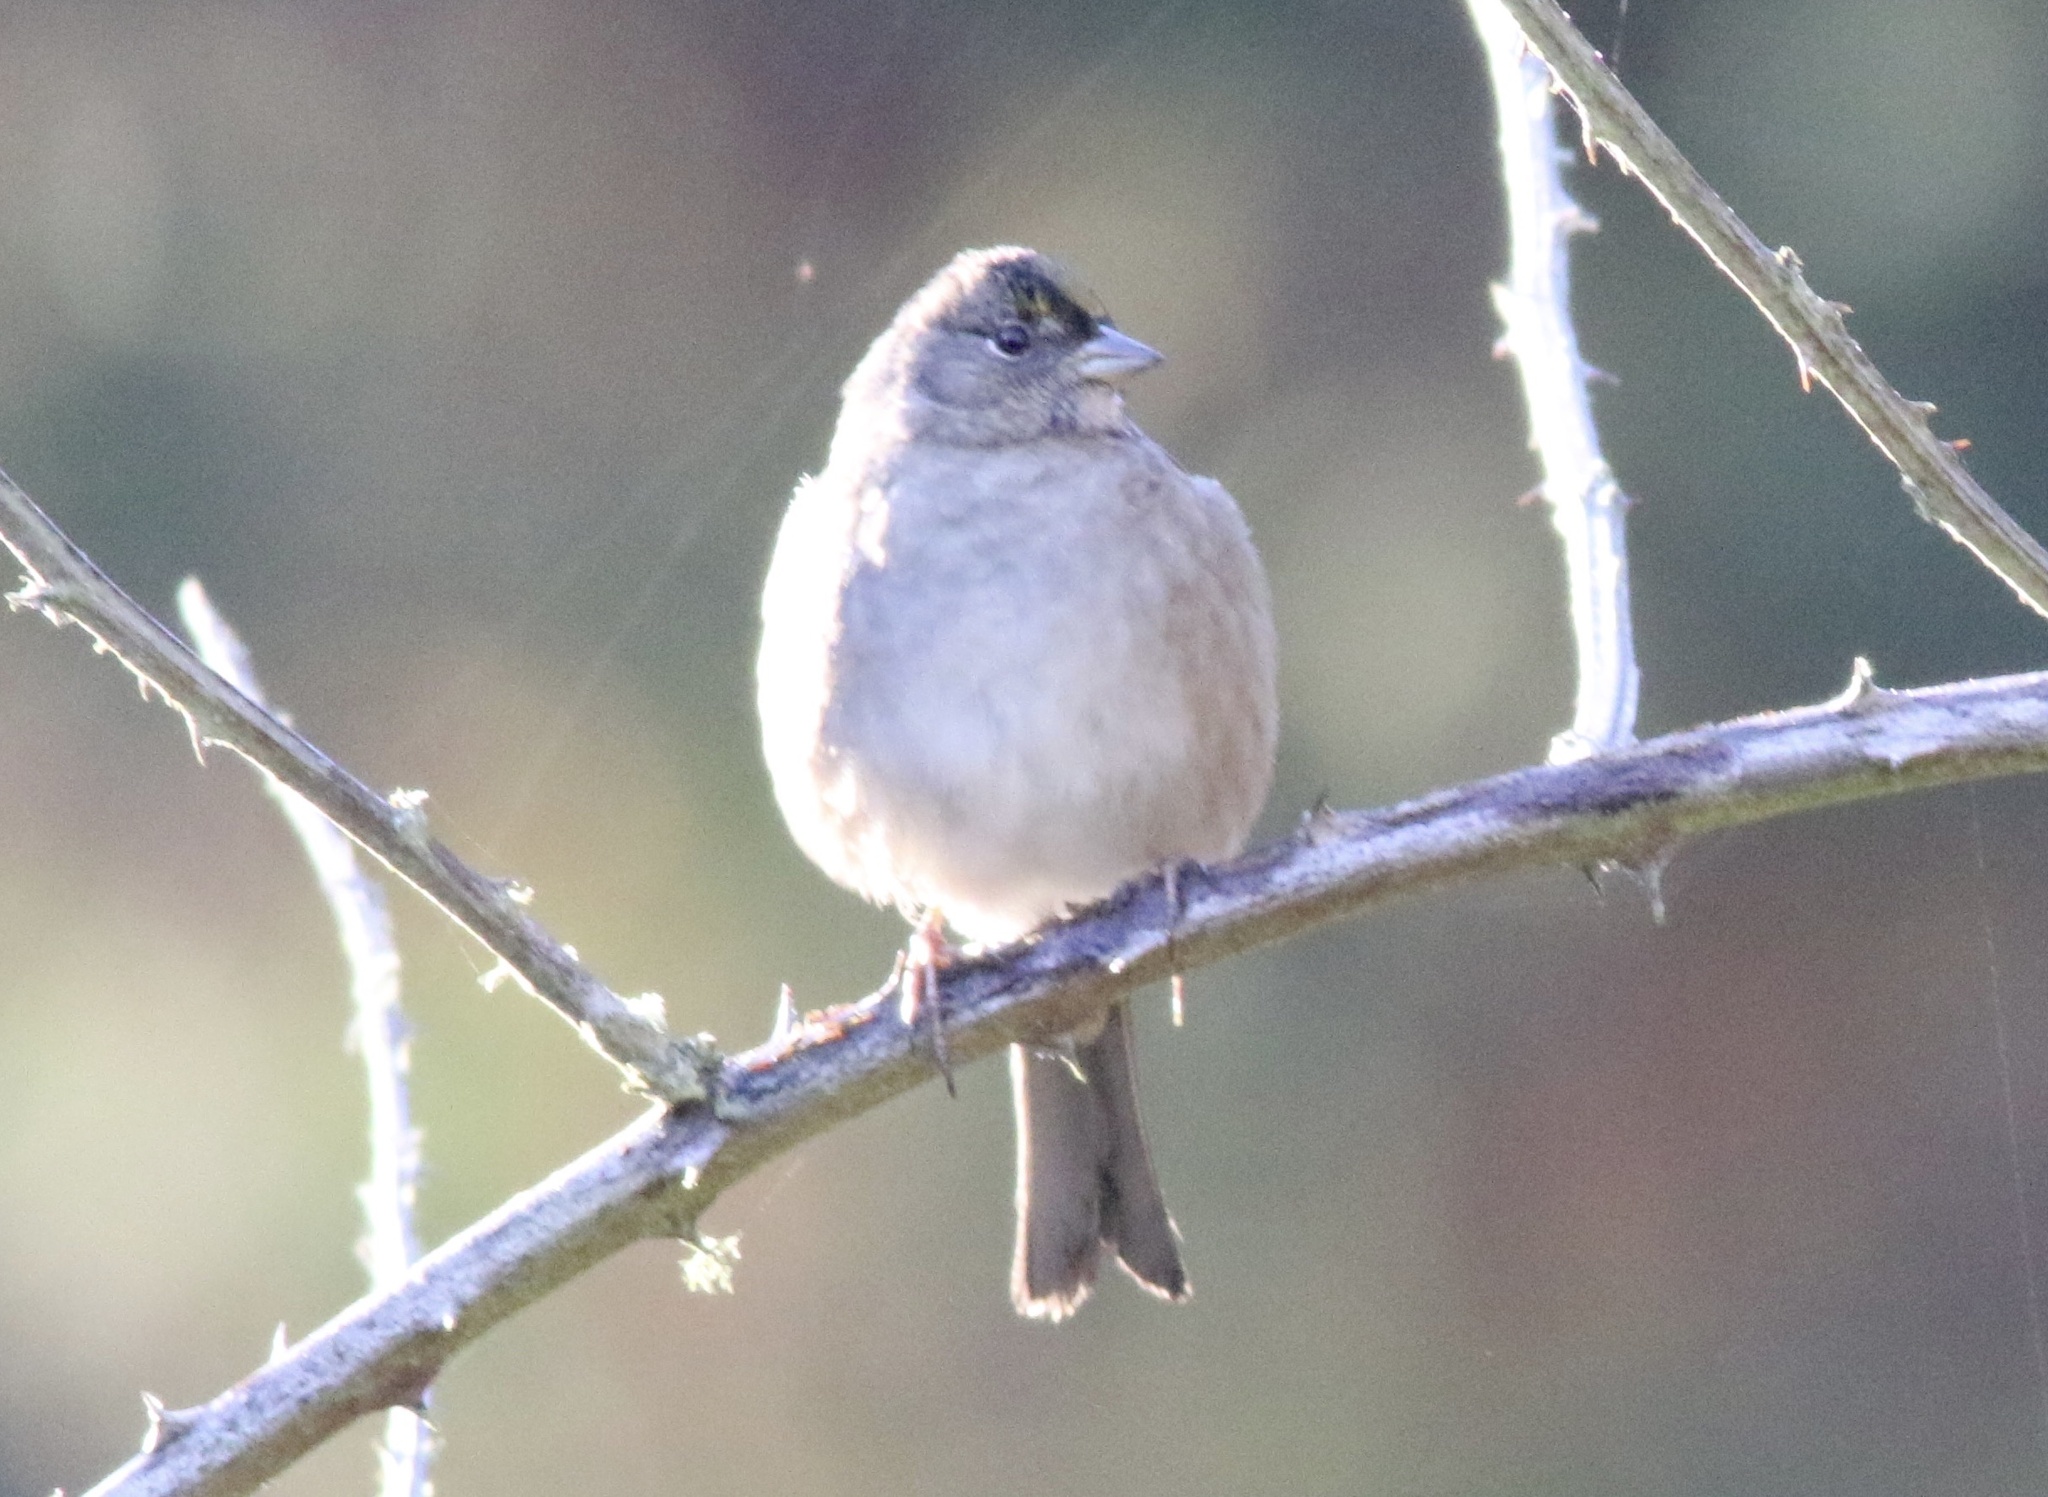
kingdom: Animalia
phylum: Chordata
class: Aves
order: Passeriformes
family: Passerellidae
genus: Zonotrichia
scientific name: Zonotrichia atricapilla
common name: Golden-crowned sparrow
